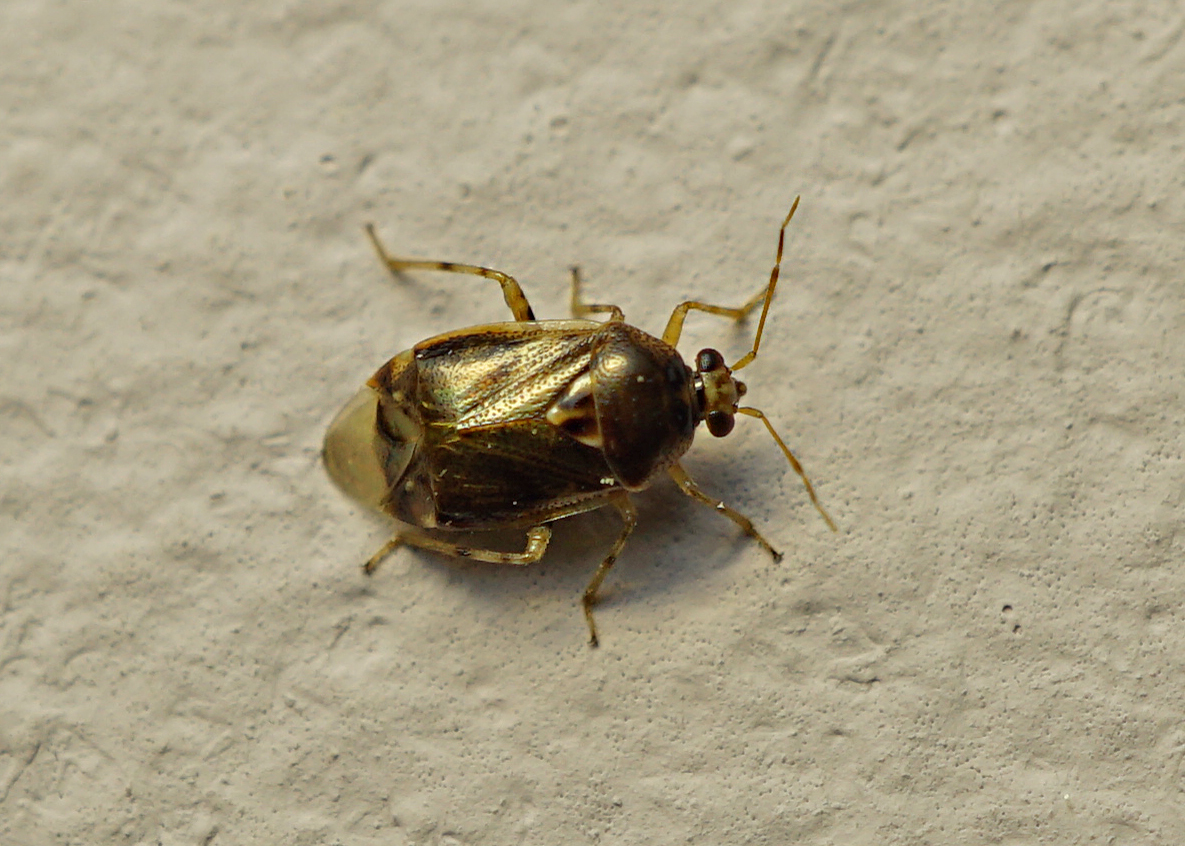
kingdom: Animalia
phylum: Arthropoda
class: Insecta
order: Hemiptera
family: Miridae
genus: Deraeocoris
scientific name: Deraeocoris lutescens
